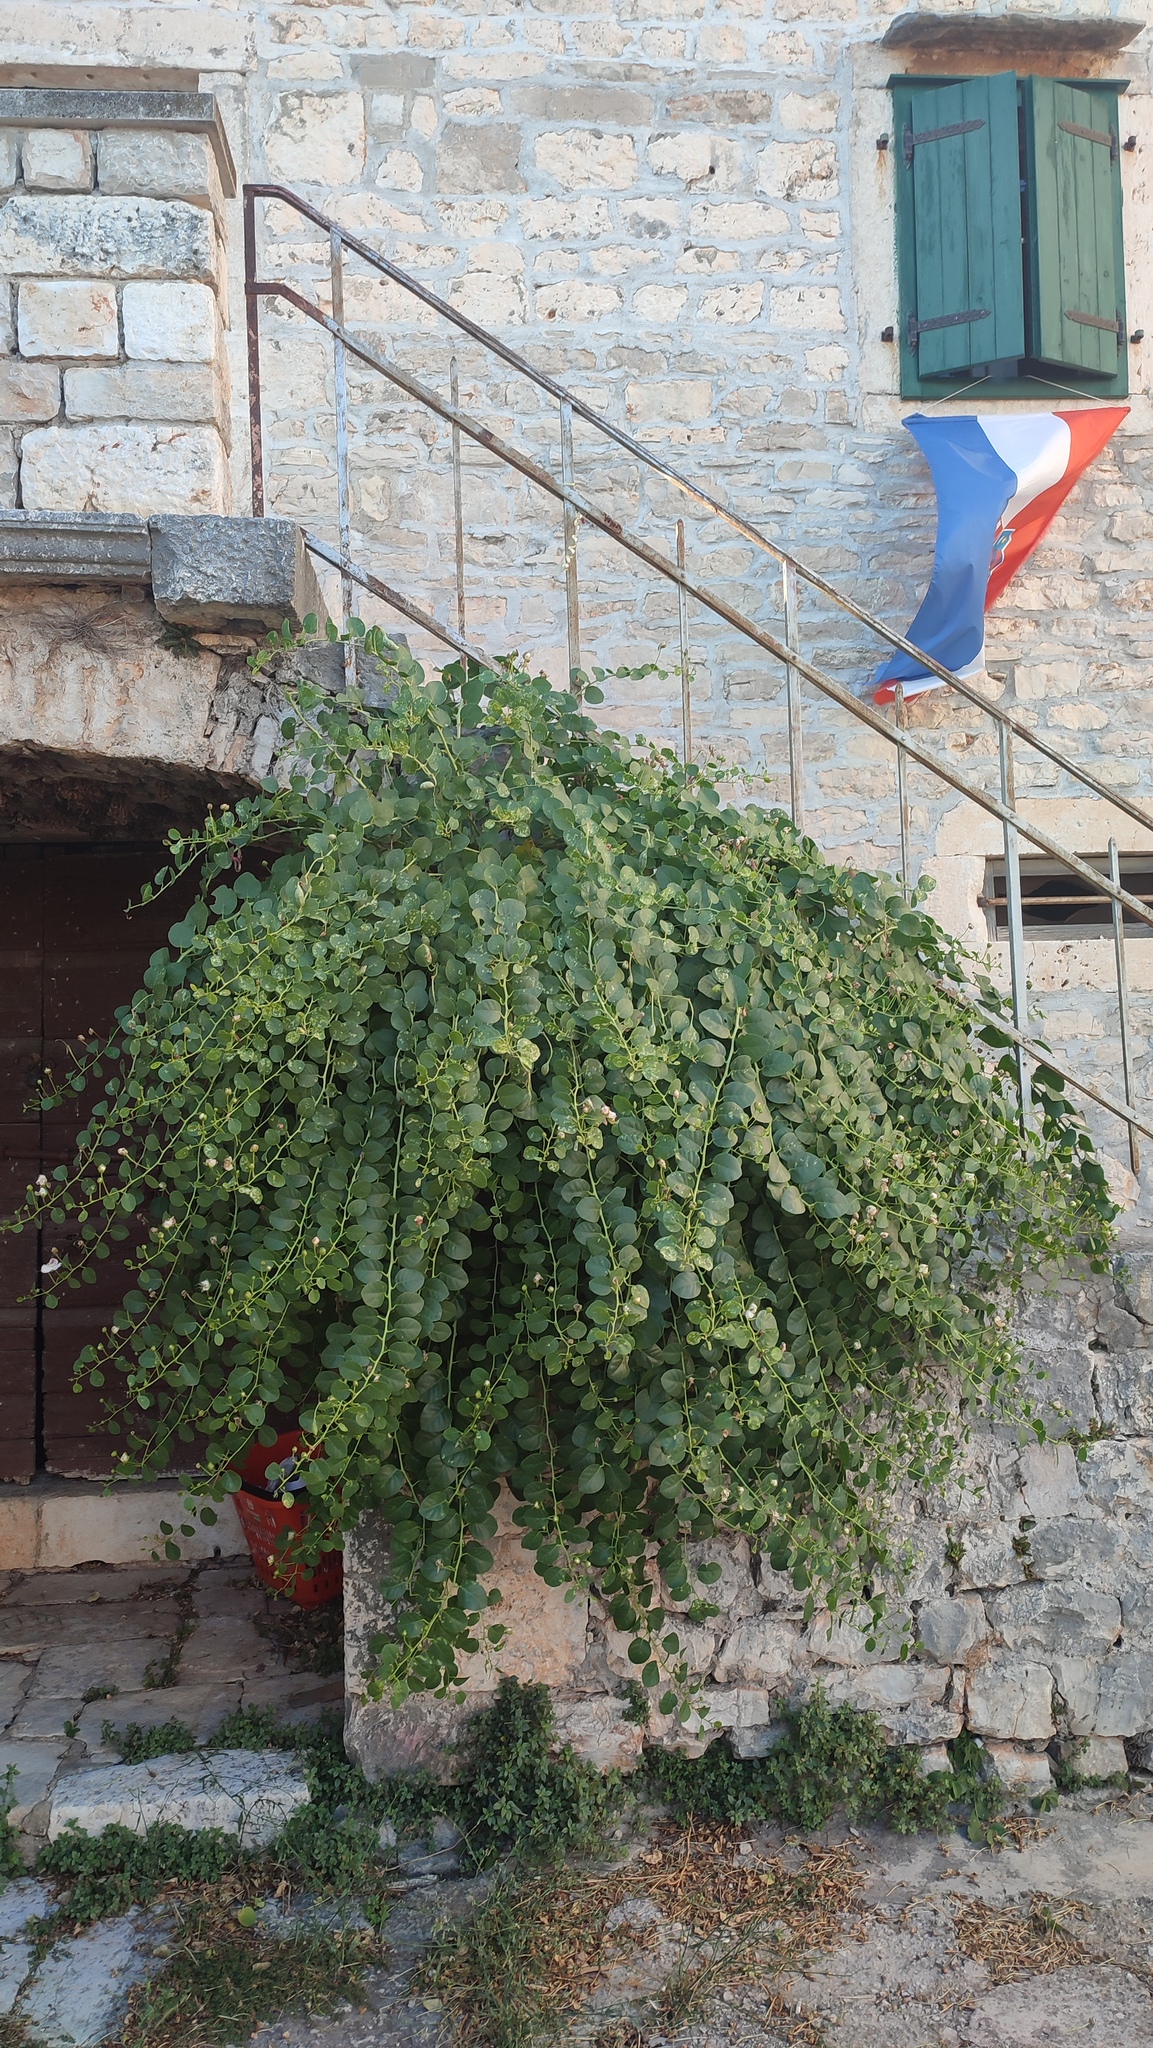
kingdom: Plantae
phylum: Tracheophyta
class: Magnoliopsida
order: Brassicales
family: Capparaceae
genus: Capparis
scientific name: Capparis orientalis
